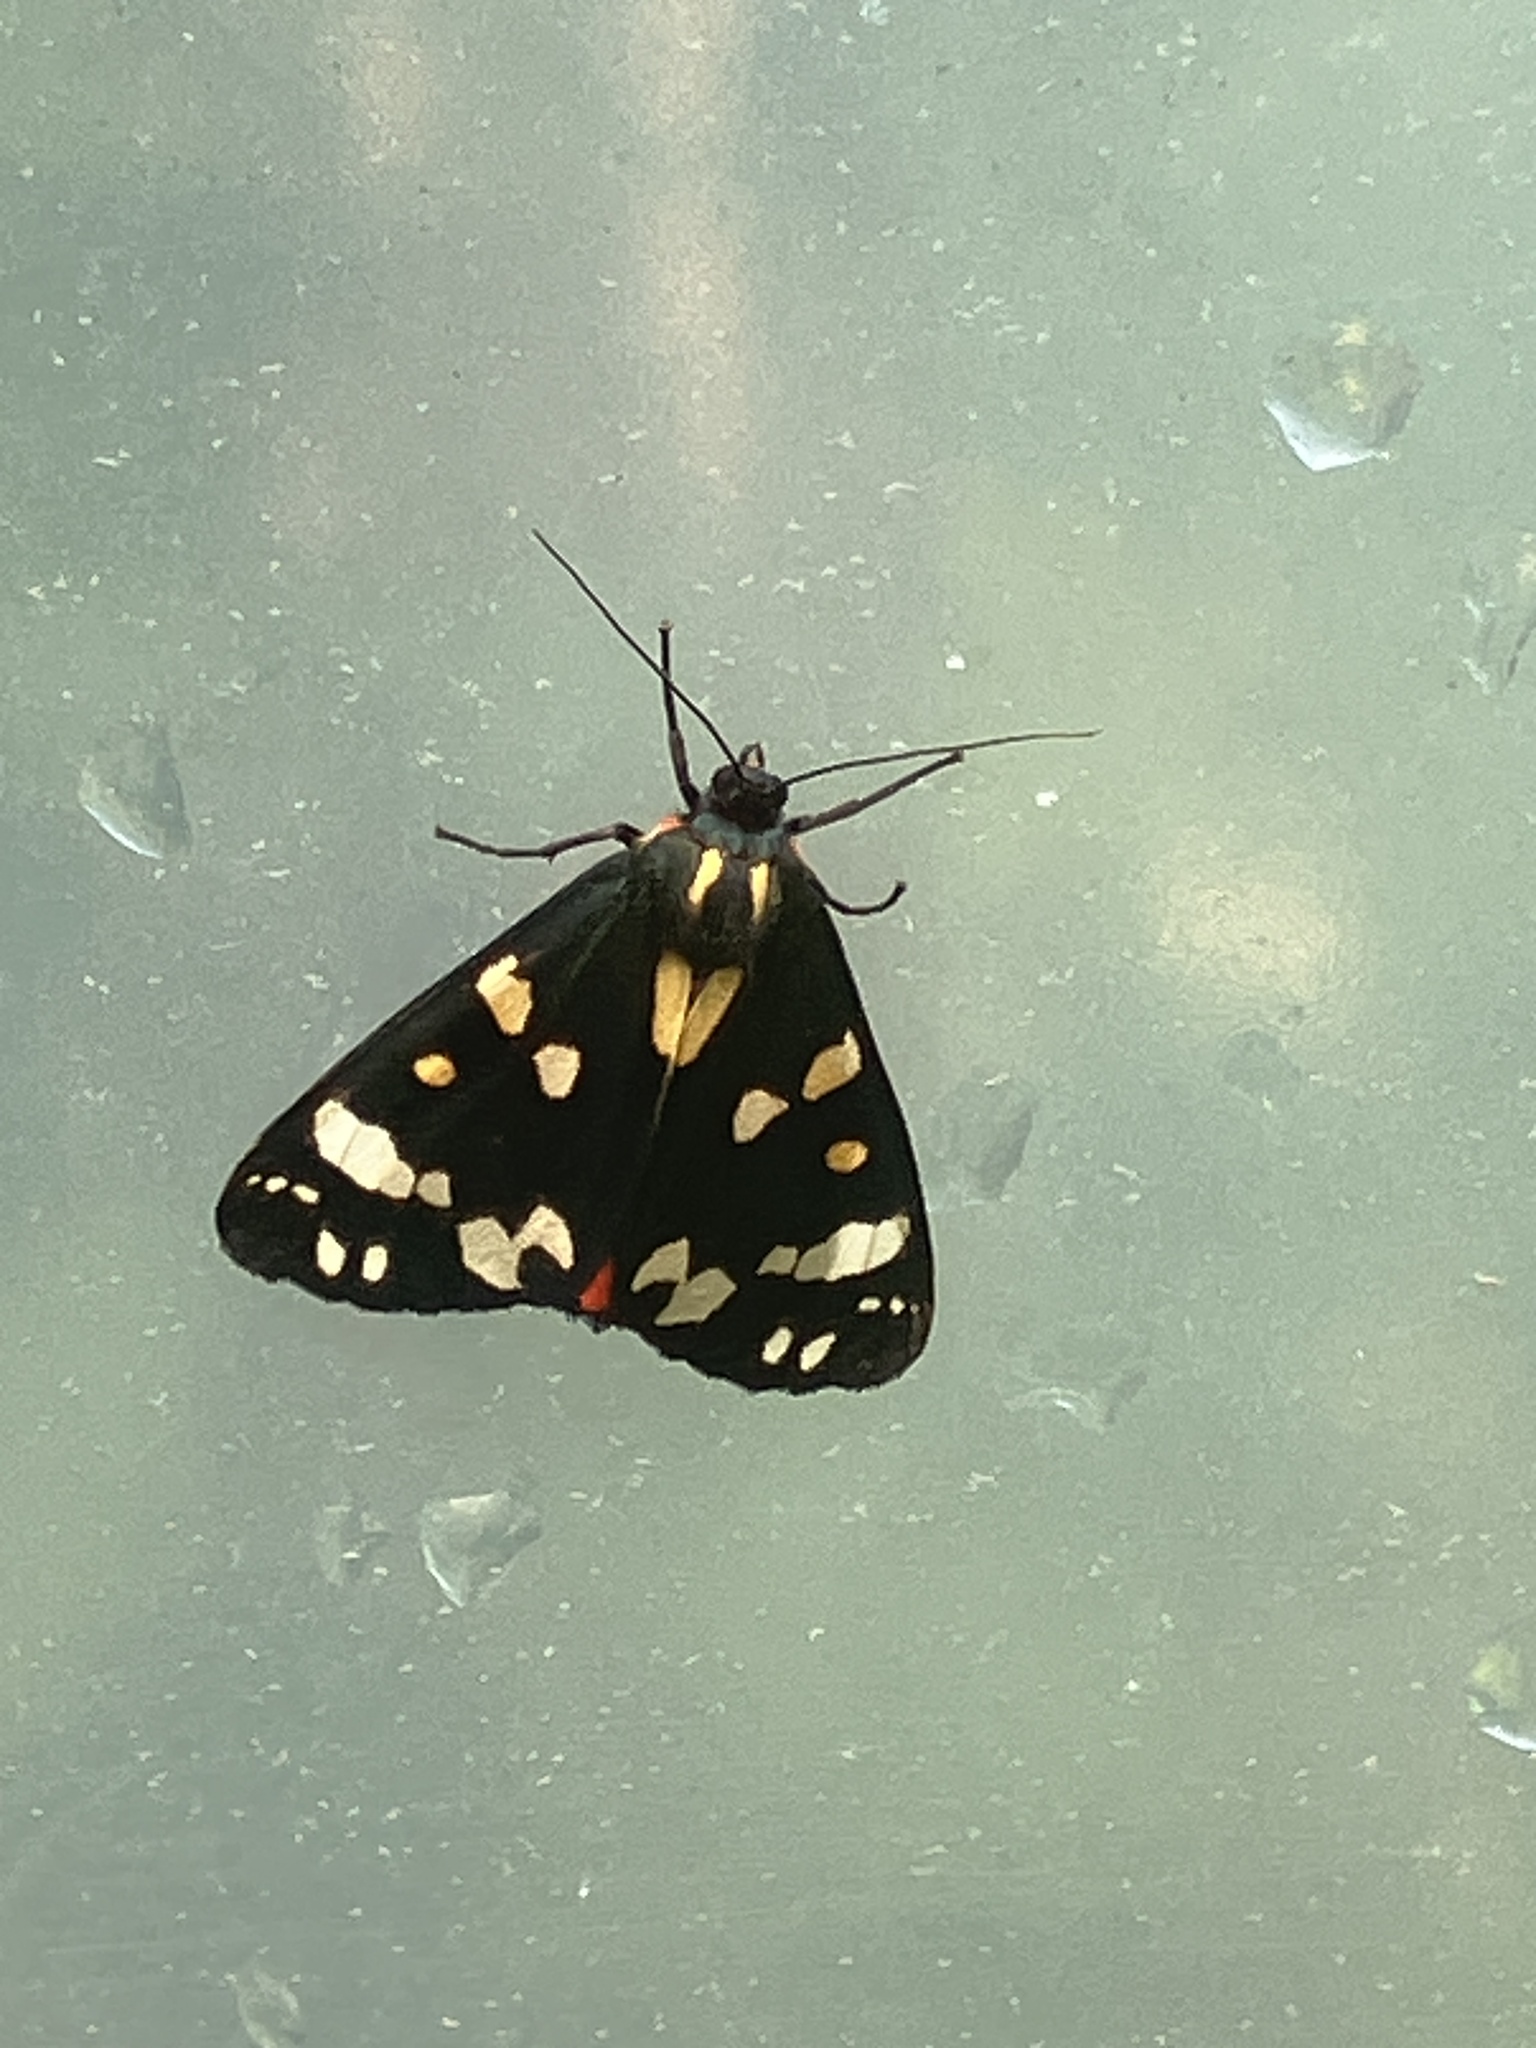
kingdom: Animalia
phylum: Arthropoda
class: Insecta
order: Lepidoptera
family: Erebidae
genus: Callimorpha
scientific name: Callimorpha dominula
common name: Scarlet tiger
